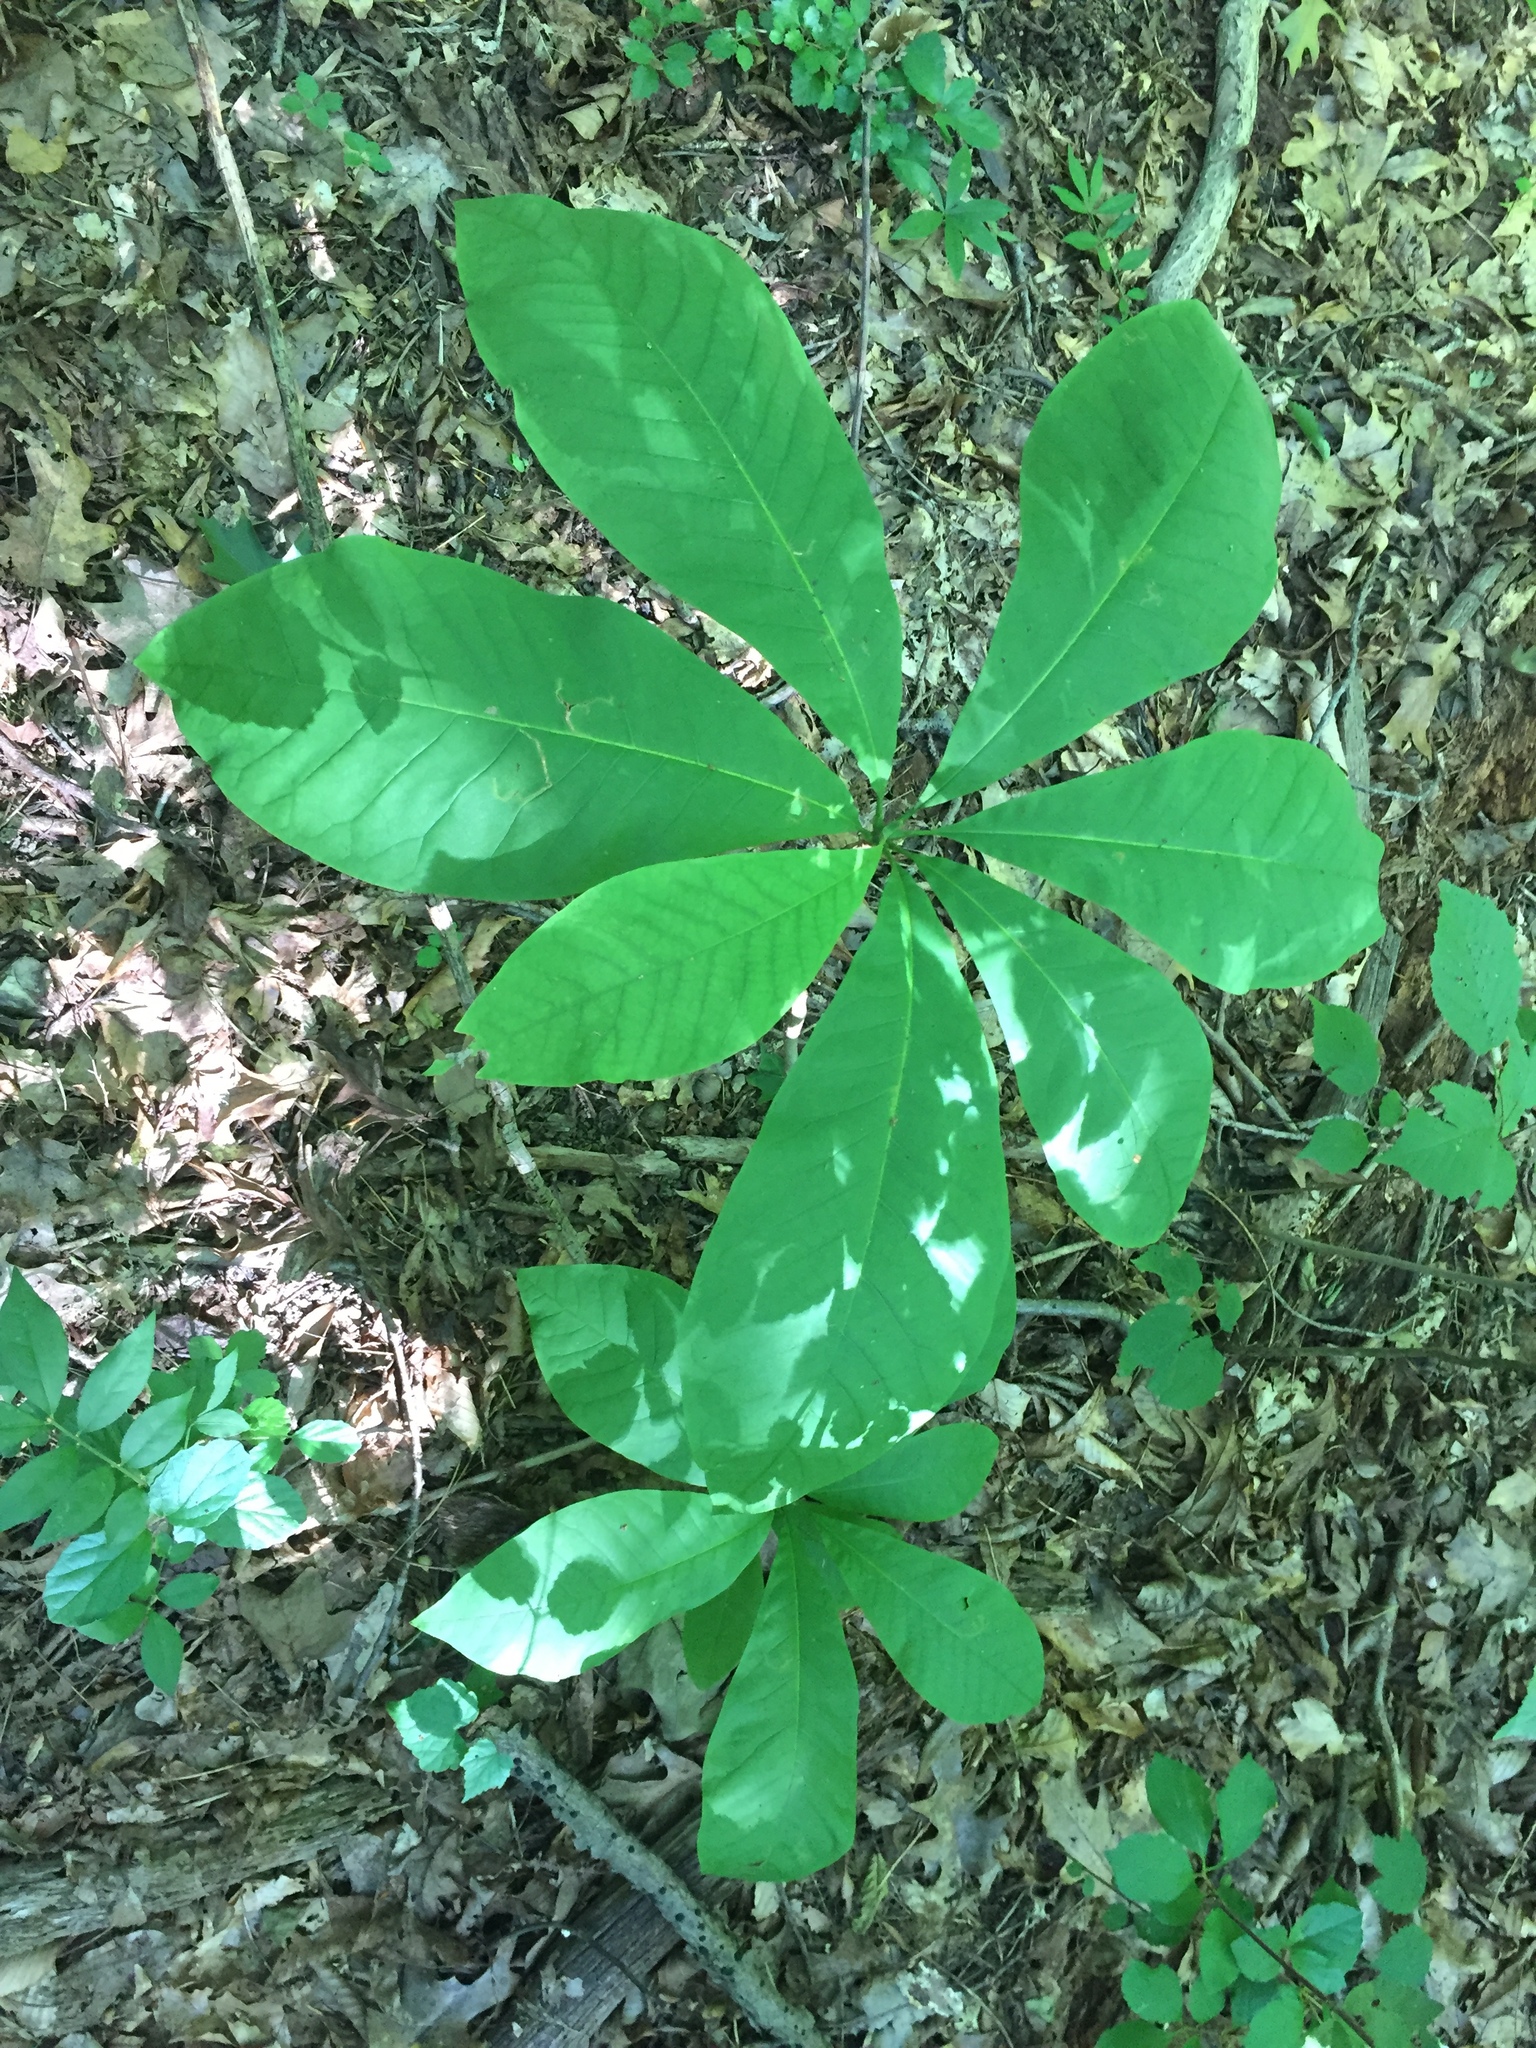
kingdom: Plantae
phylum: Tracheophyta
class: Magnoliopsida
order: Magnoliales
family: Magnoliaceae
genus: Magnolia
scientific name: Magnolia tripetala
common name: Umbrella magnolia
